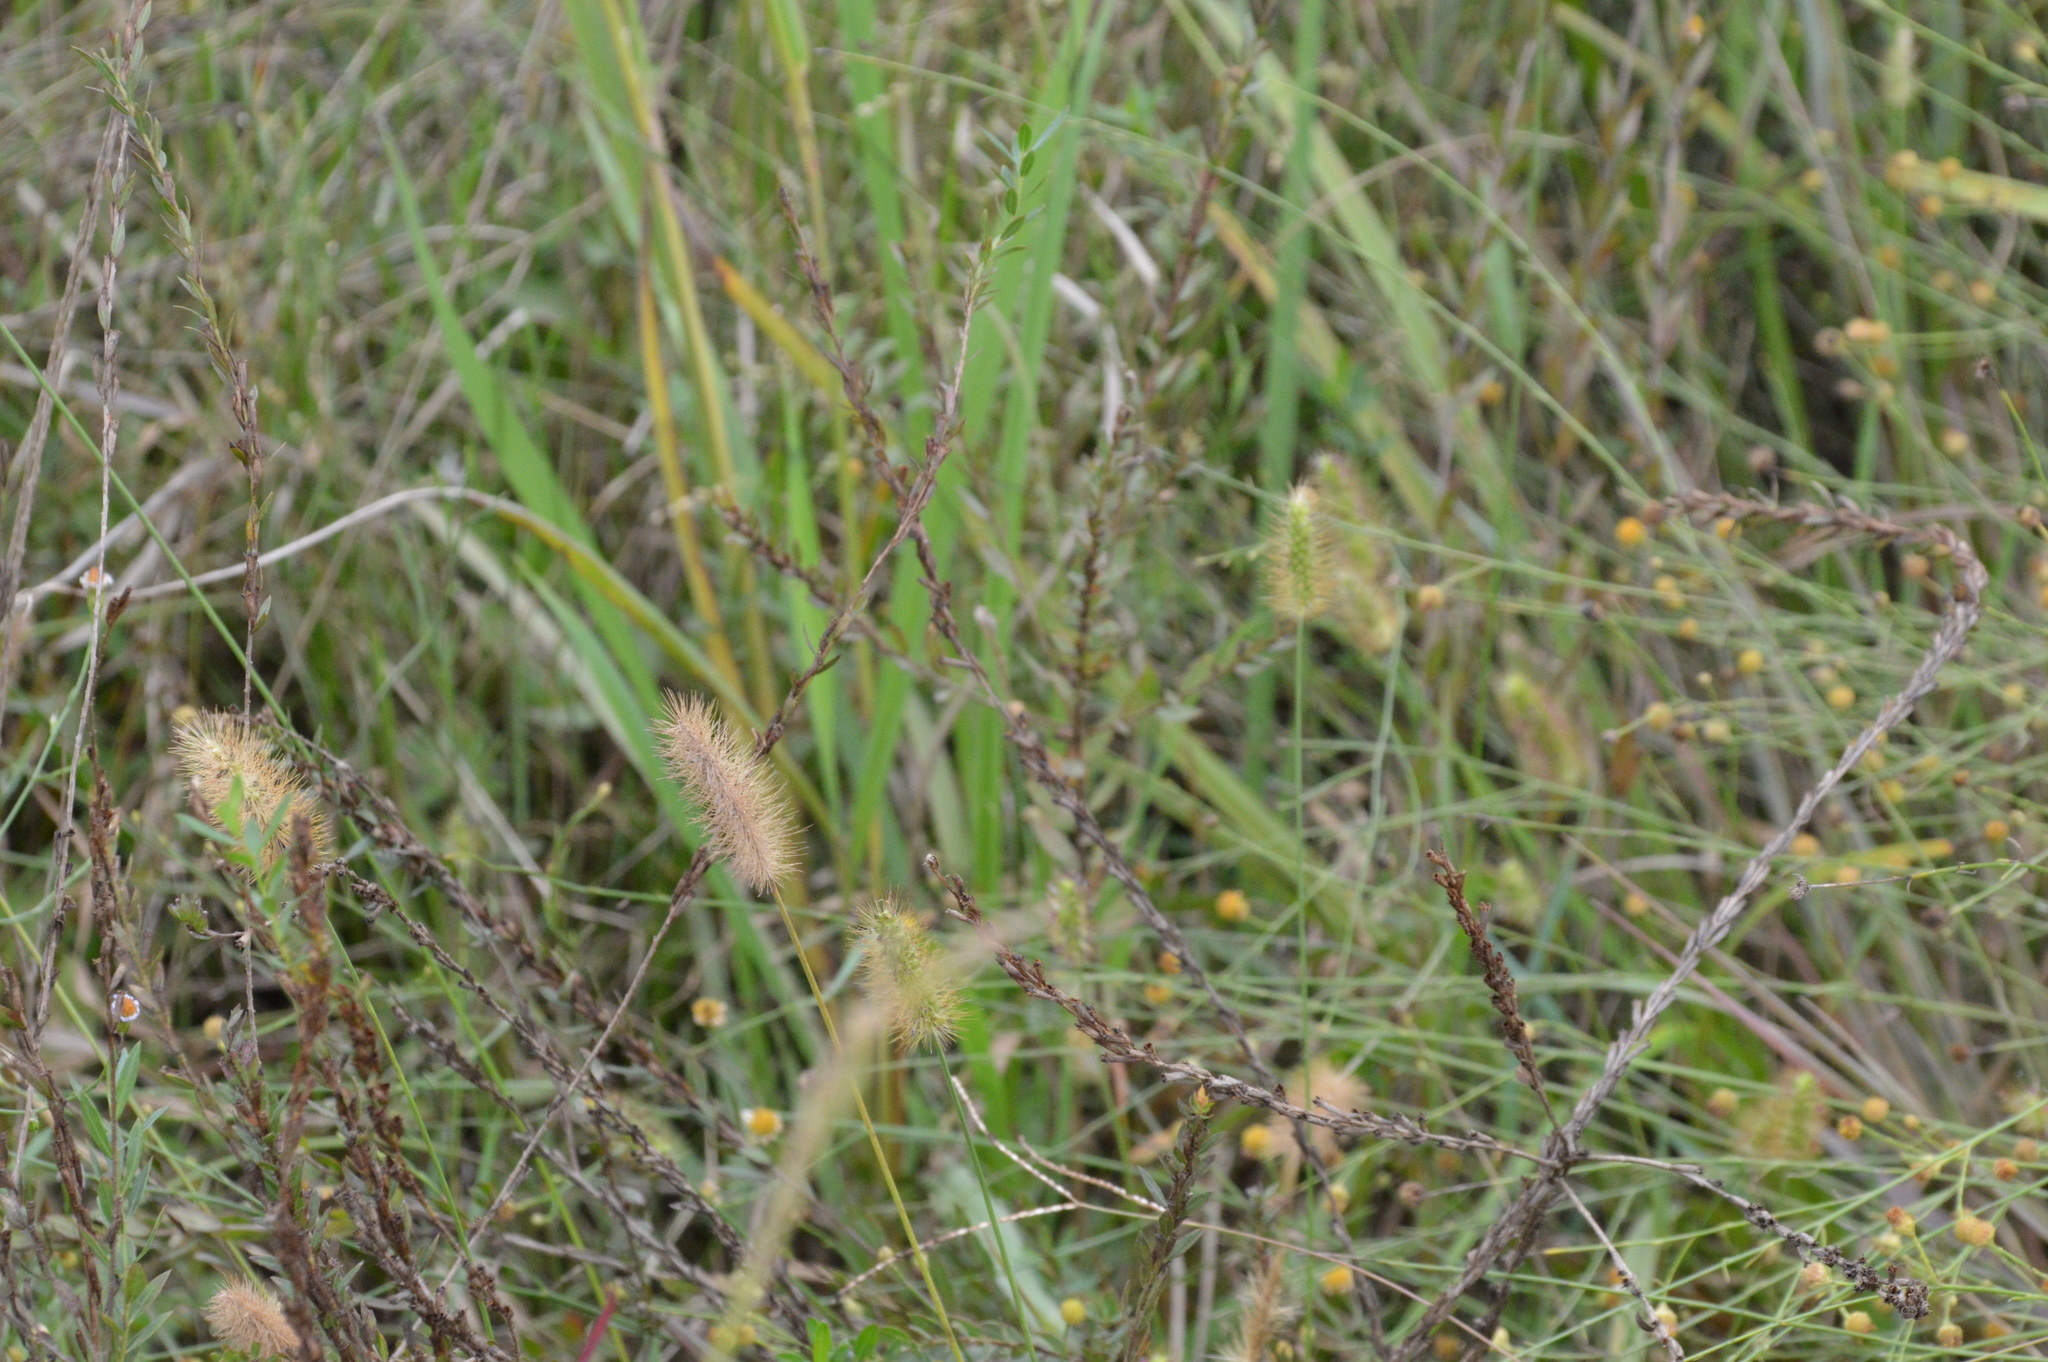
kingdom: Plantae
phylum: Tracheophyta
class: Liliopsida
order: Poales
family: Poaceae
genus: Setaria
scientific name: Setaria parviflora
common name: Knotroot bristle-grass
